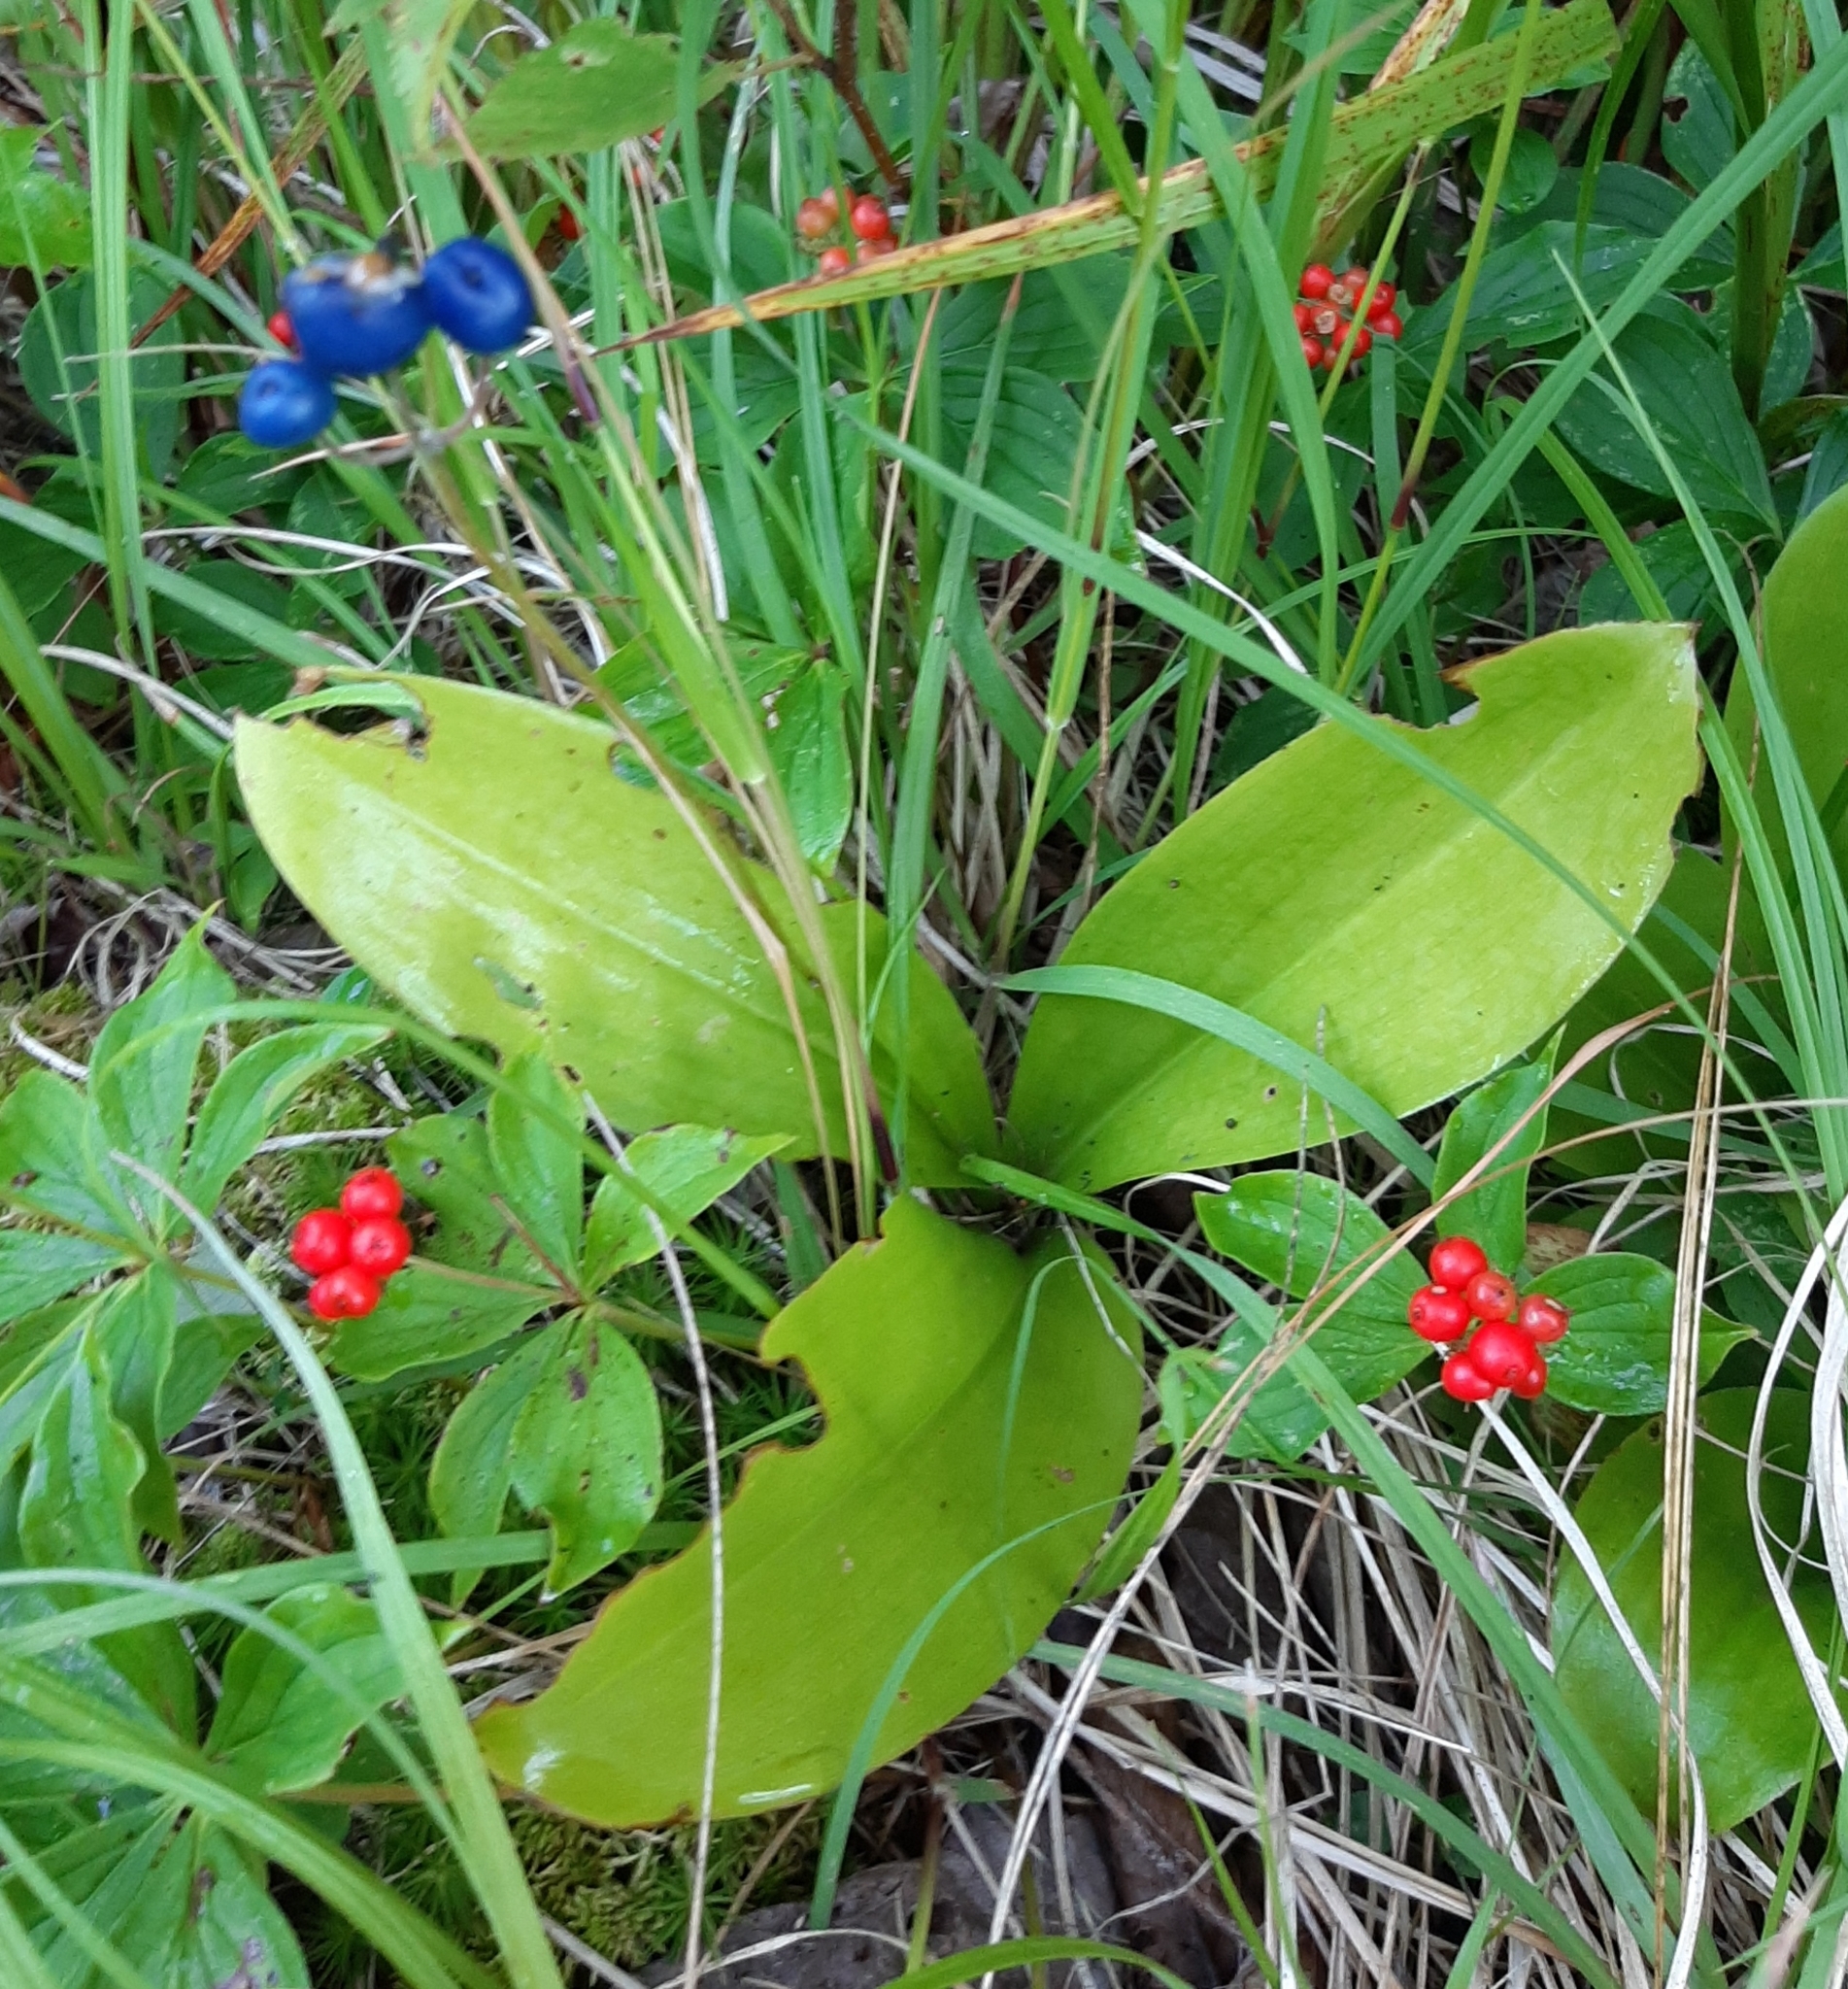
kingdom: Plantae
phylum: Tracheophyta
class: Liliopsida
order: Liliales
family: Liliaceae
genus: Clintonia
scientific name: Clintonia borealis
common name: Yellow clintonia
